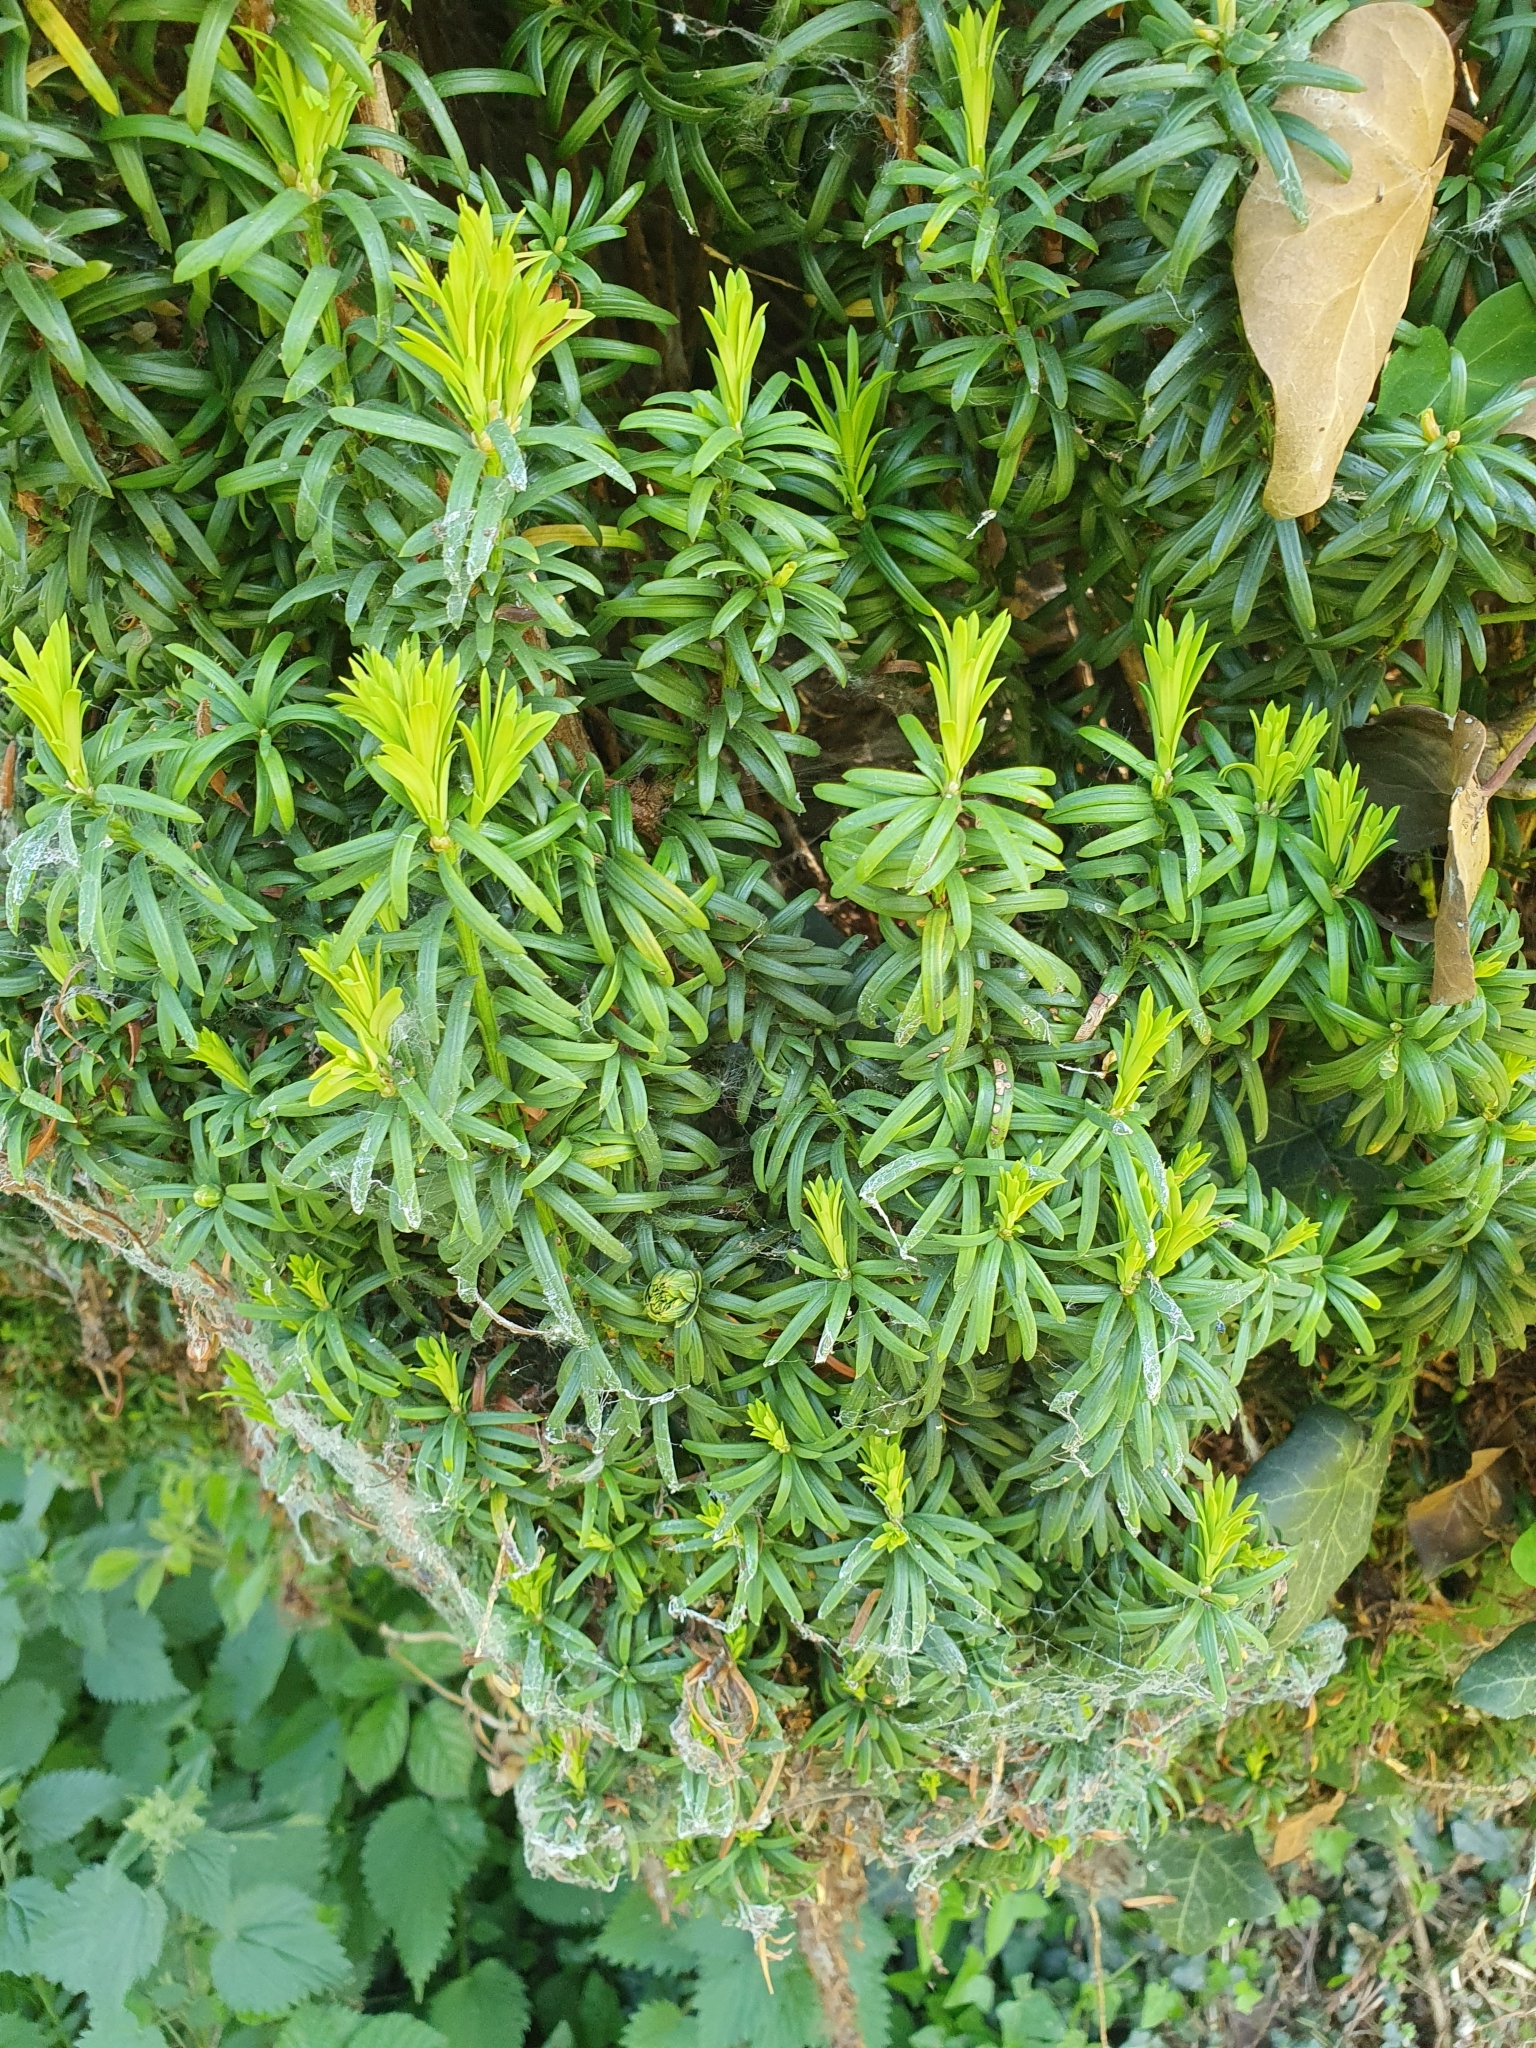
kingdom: Plantae
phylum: Tracheophyta
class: Pinopsida
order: Pinales
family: Taxaceae
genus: Taxus
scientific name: Taxus baccata
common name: Yew
